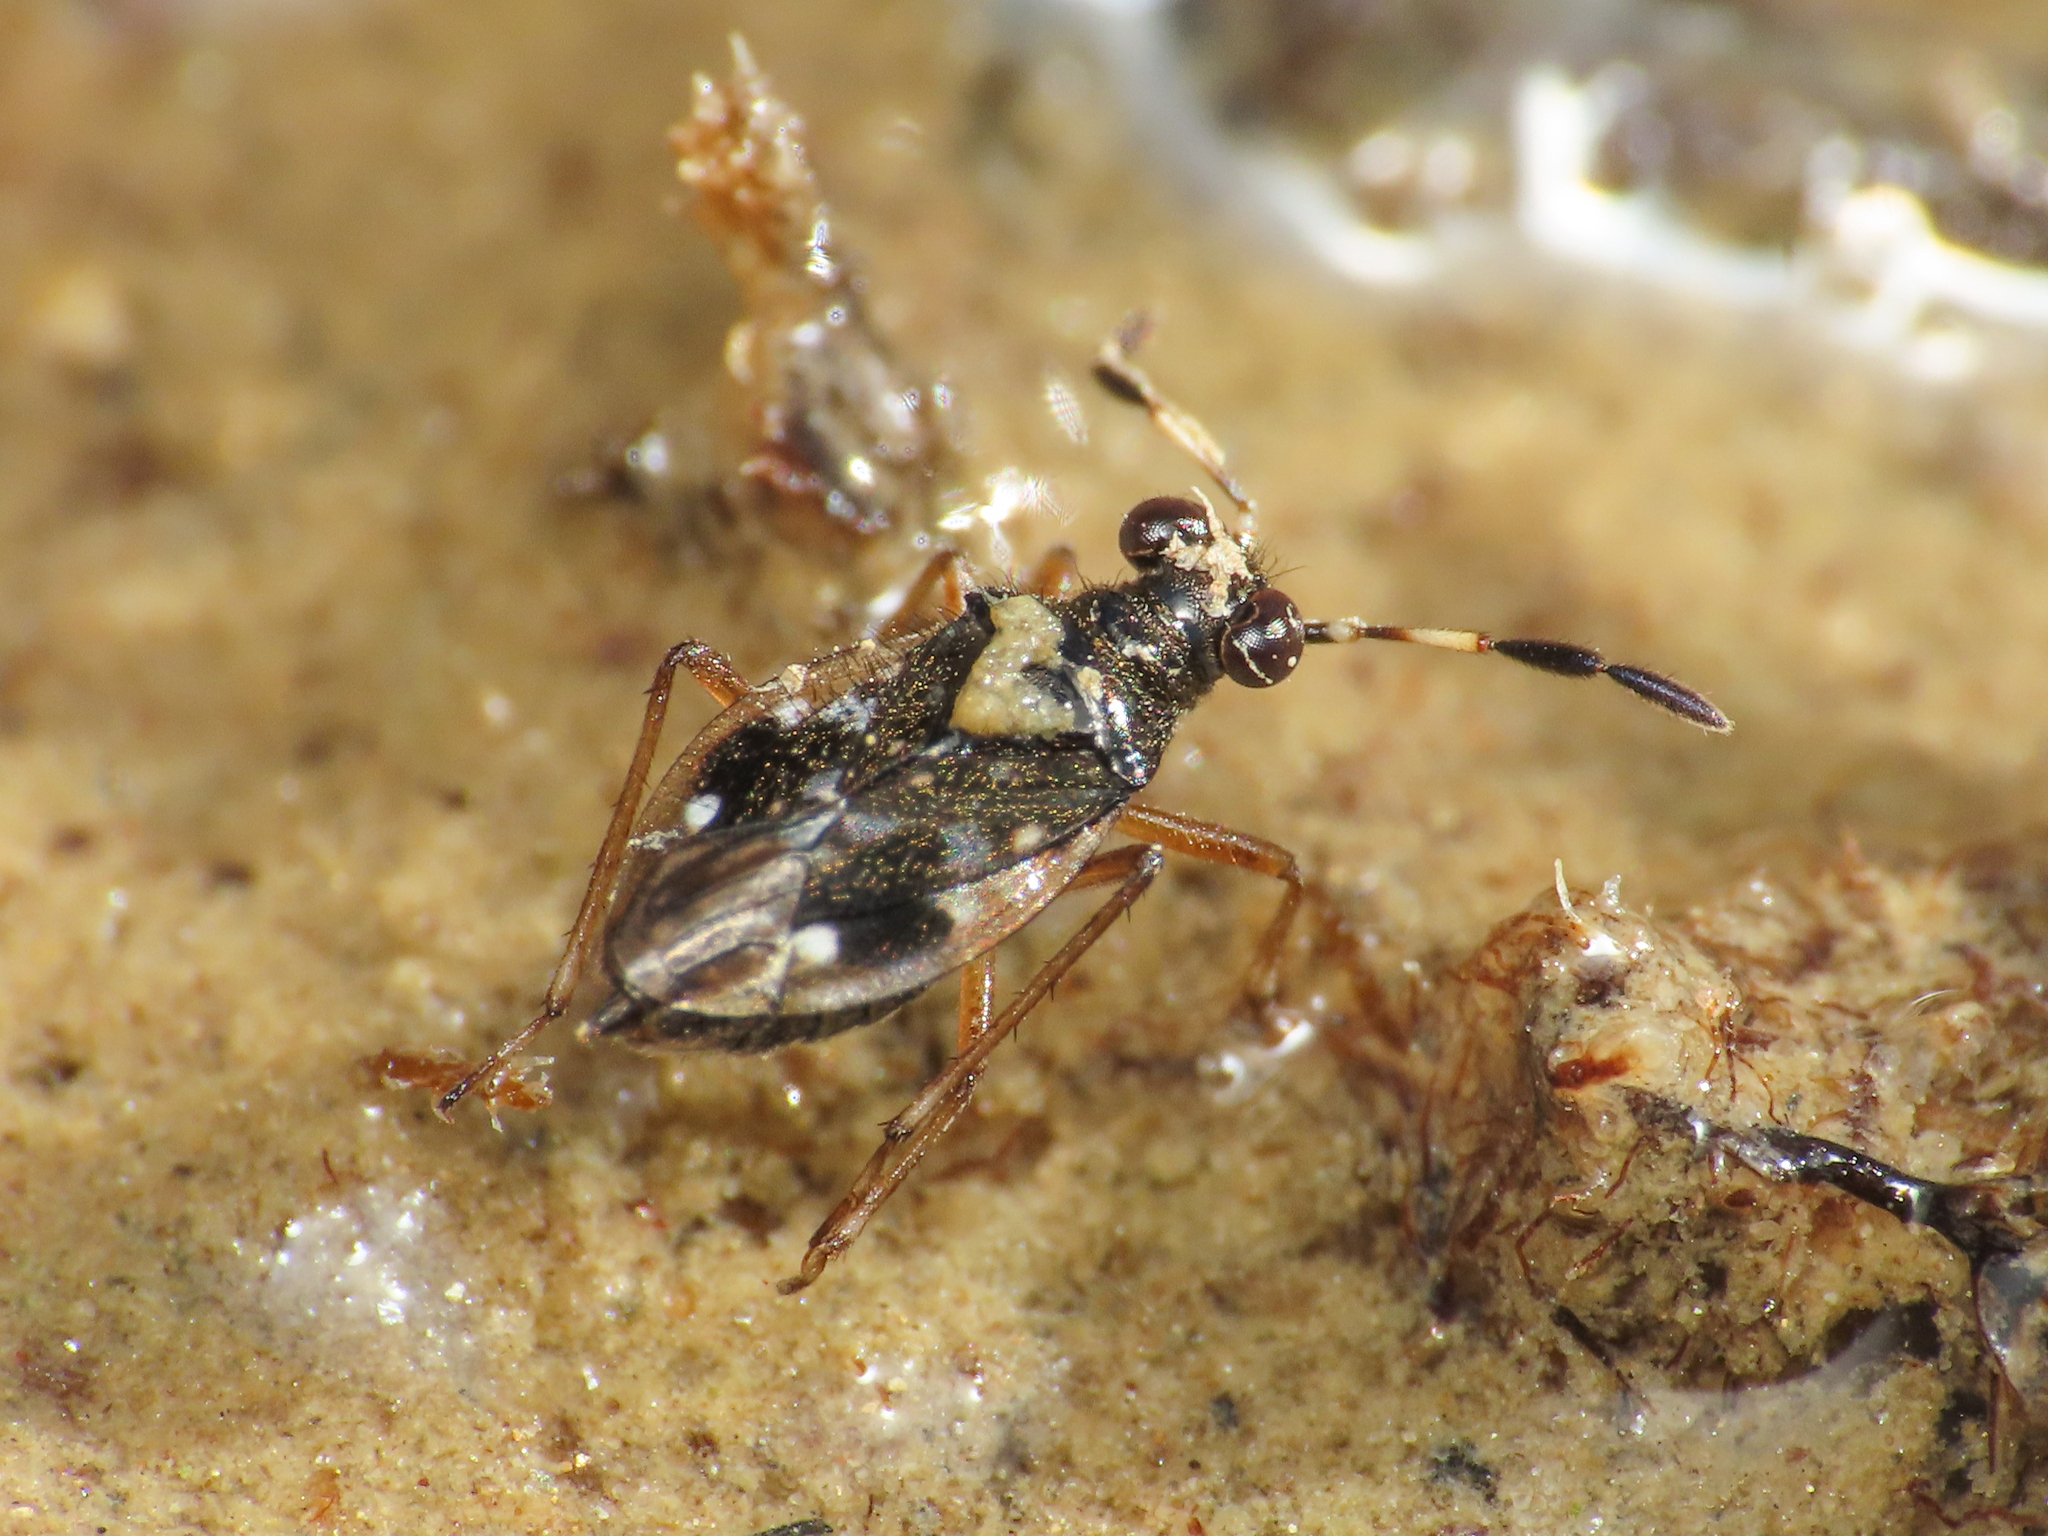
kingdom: Animalia
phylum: Arthropoda
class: Insecta
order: Hemiptera
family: Saldidae
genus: Chartoscirta
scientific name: Chartoscirta cocksii
